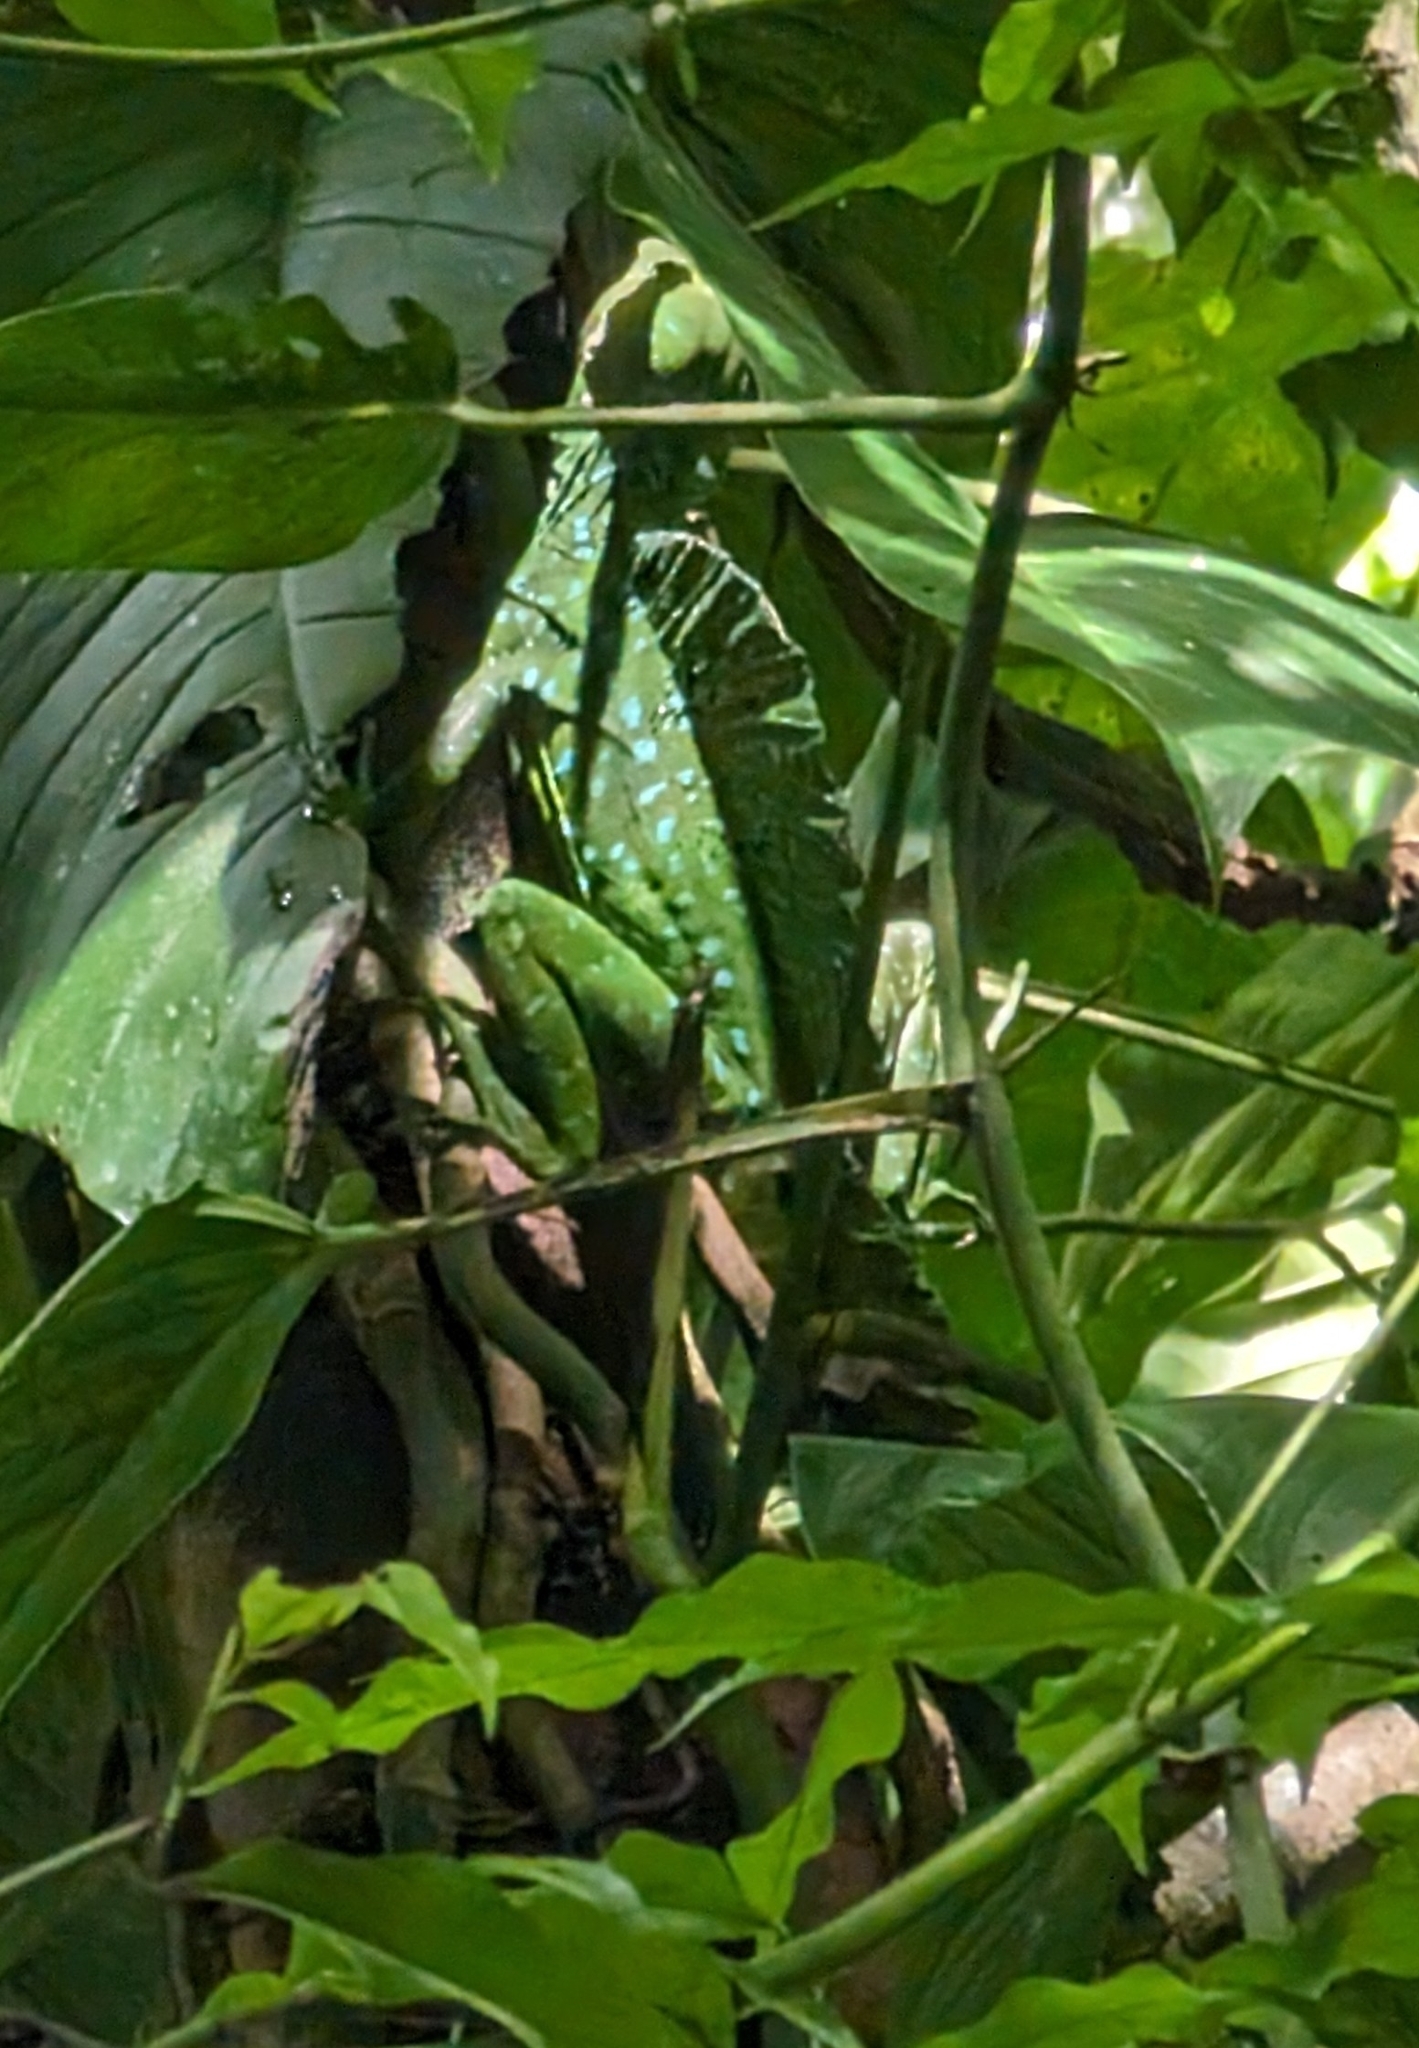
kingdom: Animalia
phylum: Chordata
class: Squamata
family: Corytophanidae
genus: Basiliscus
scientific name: Basiliscus plumifrons
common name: Green basilisk
